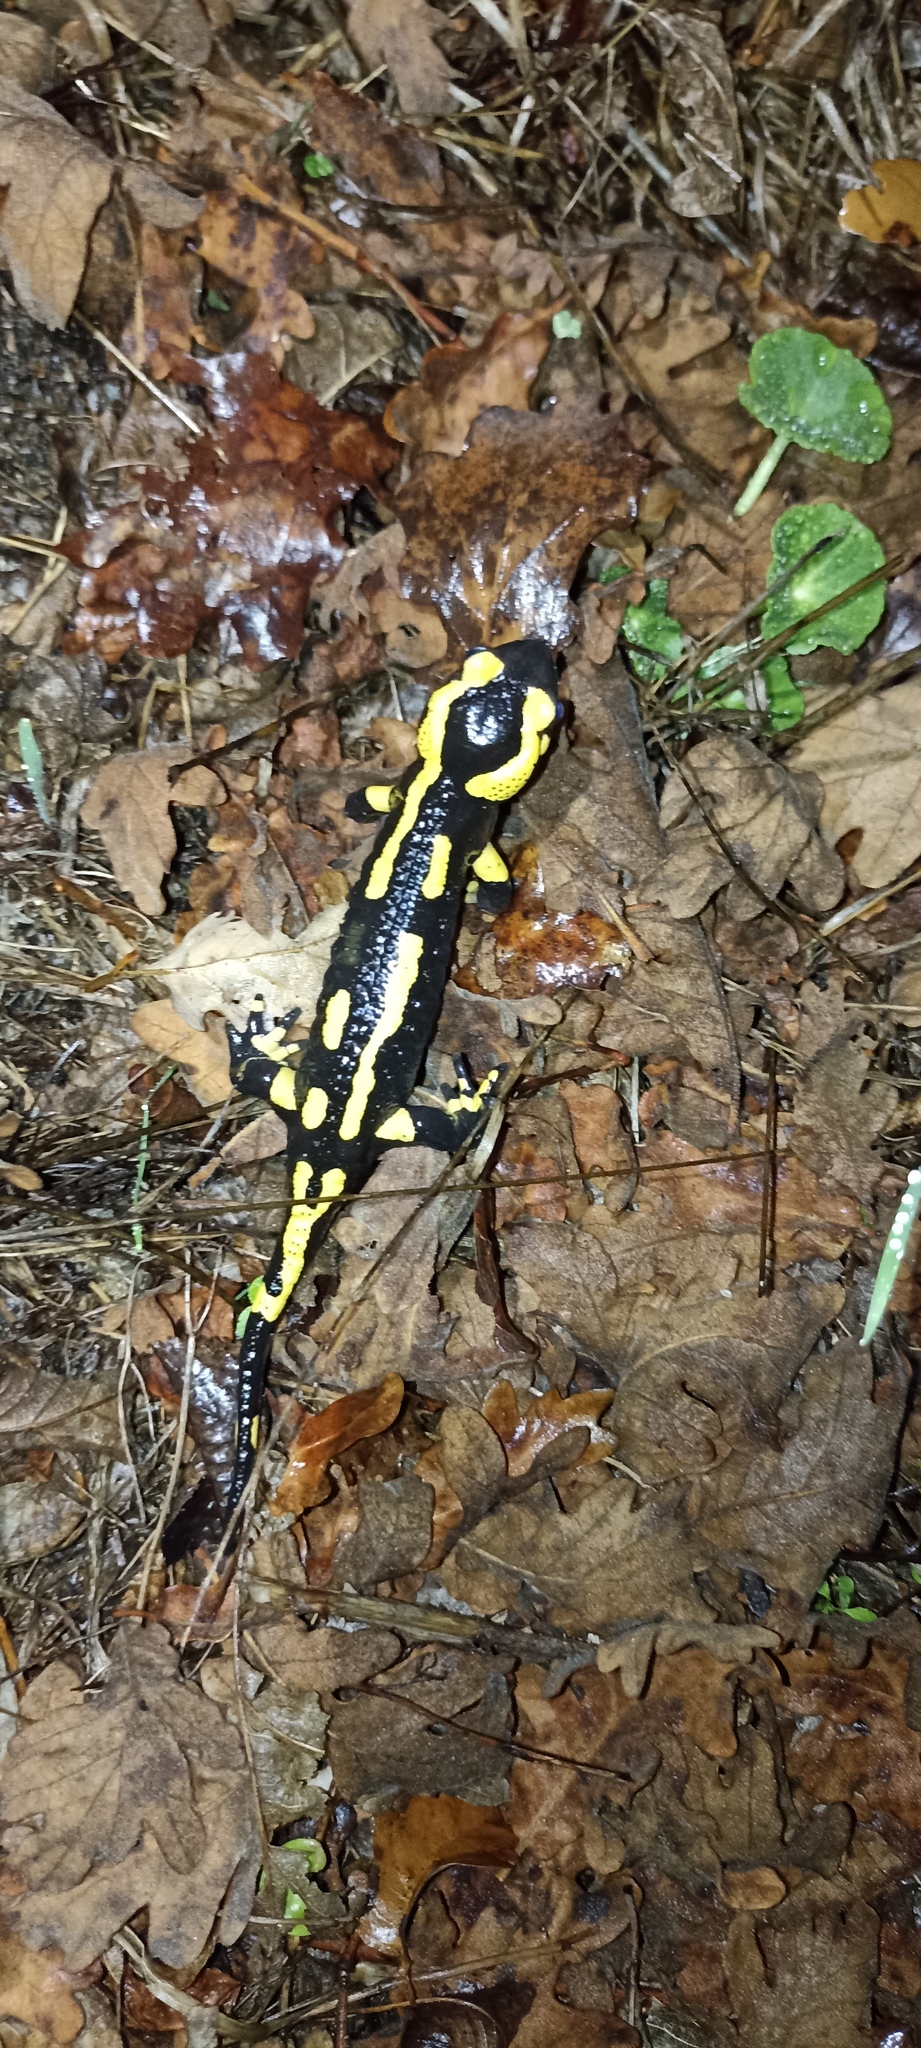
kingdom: Animalia
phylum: Chordata
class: Amphibia
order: Caudata
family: Salamandridae
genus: Salamandra
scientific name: Salamandra salamandra
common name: Fire salamander
